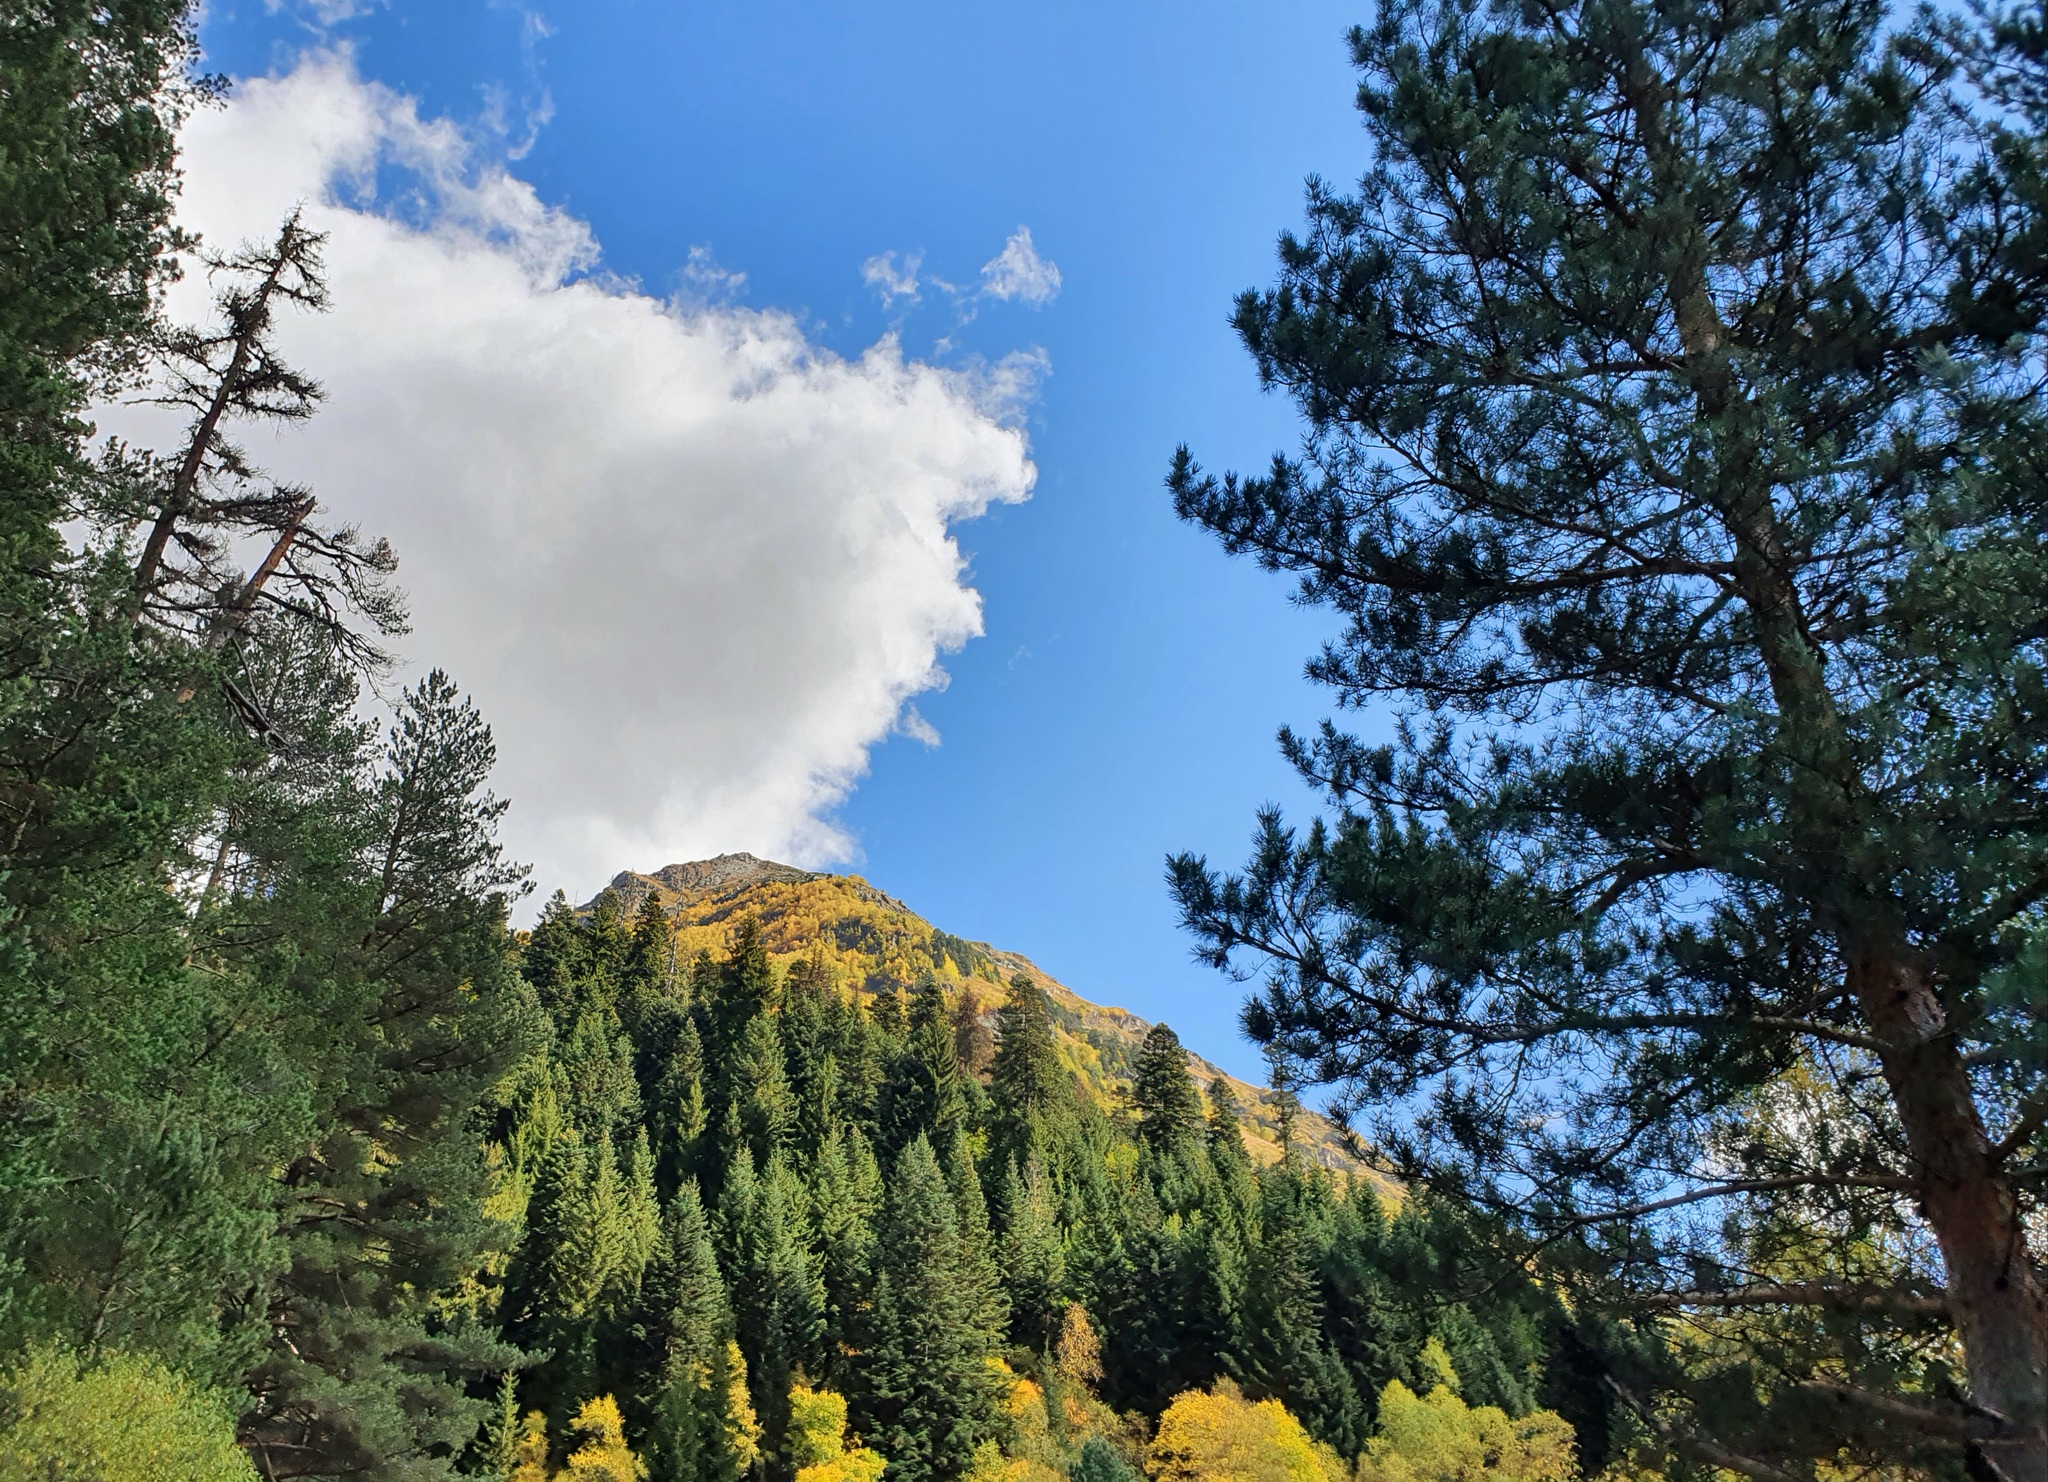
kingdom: Plantae
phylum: Tracheophyta
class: Pinopsida
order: Pinales
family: Pinaceae
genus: Pinus
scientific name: Pinus sylvestris
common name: Scots pine
